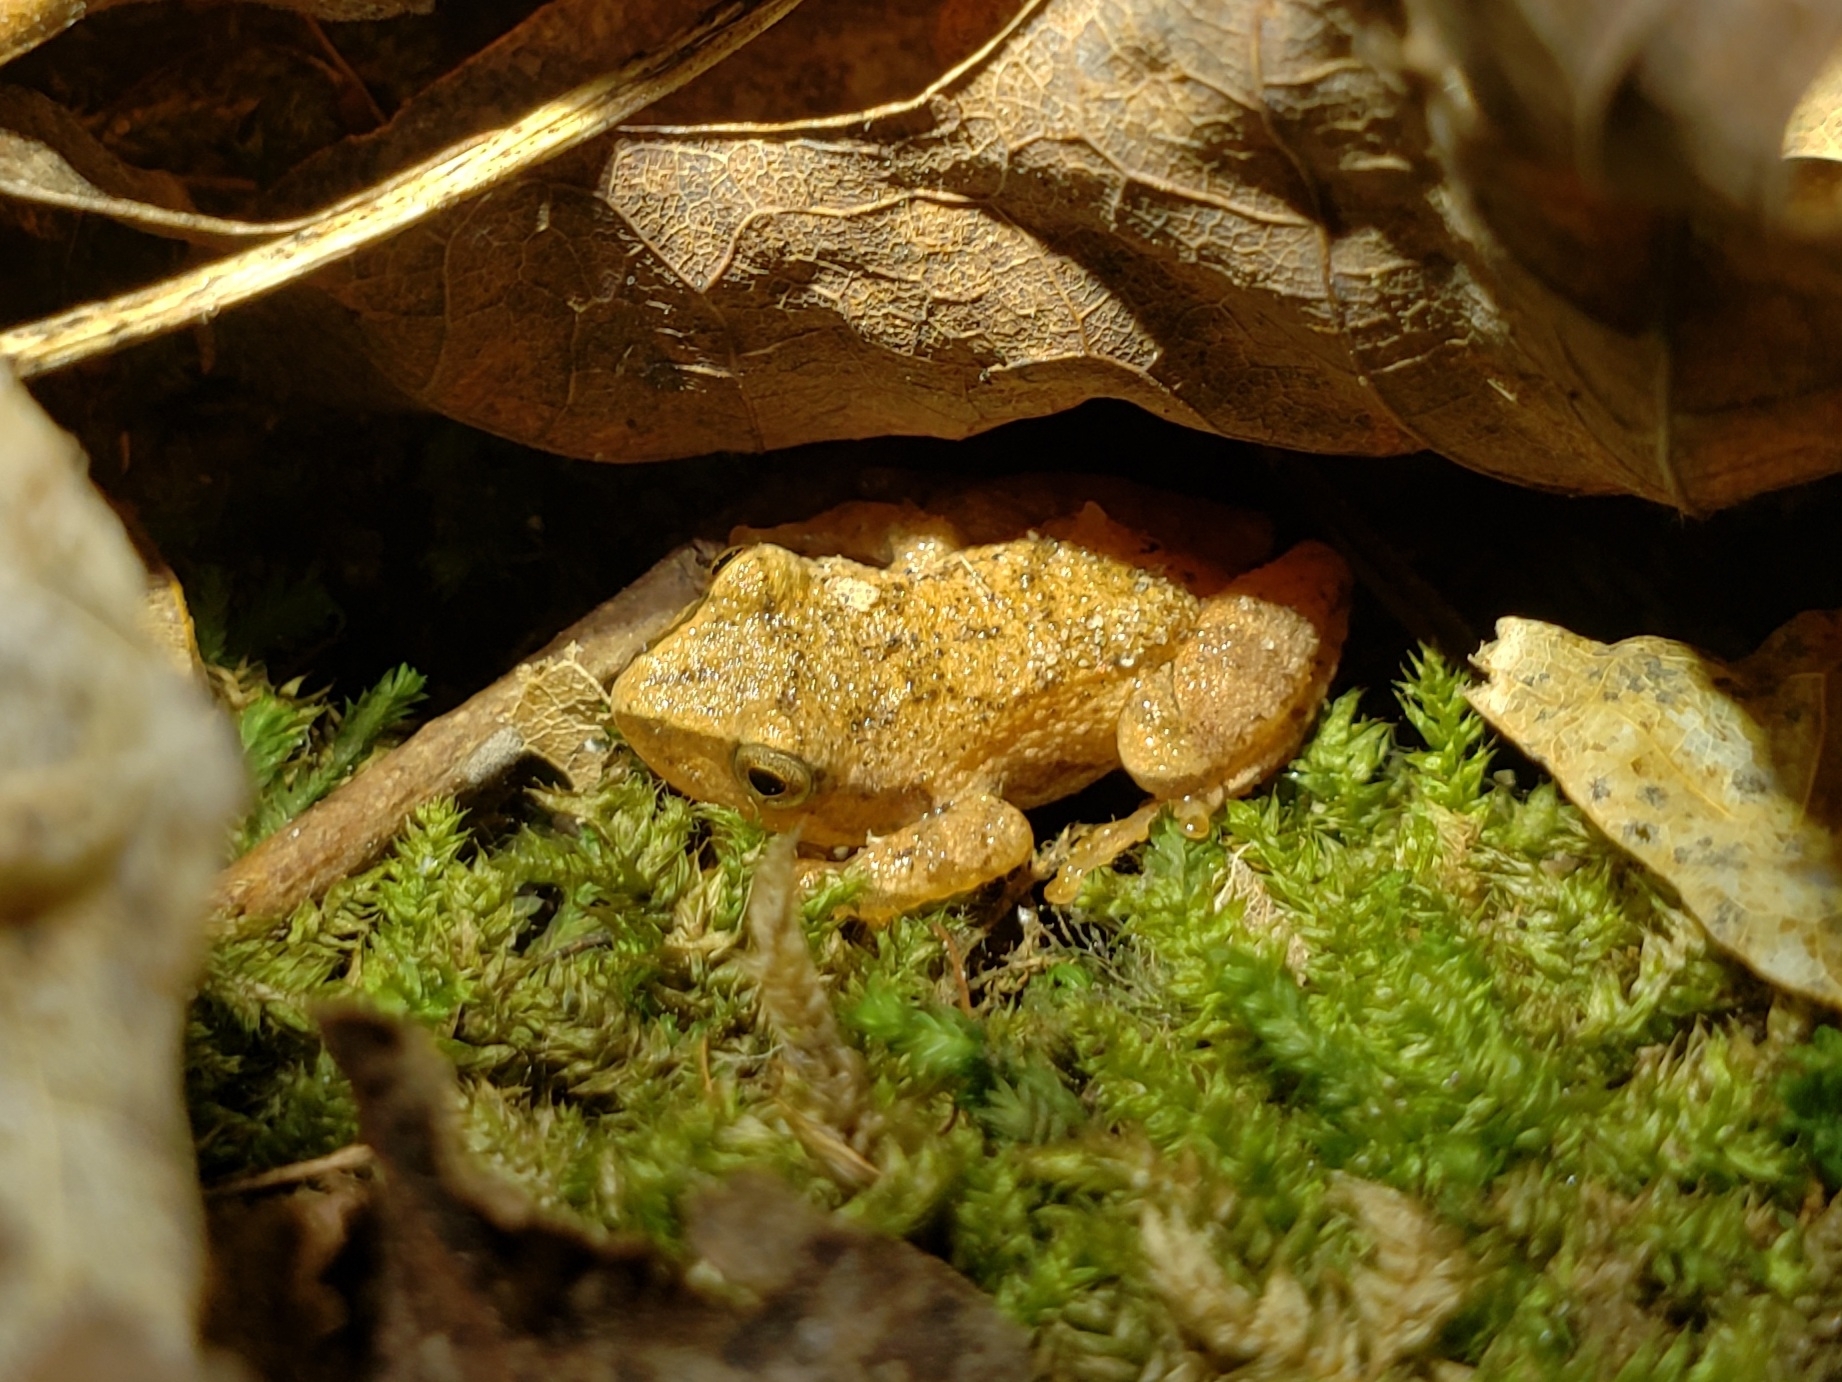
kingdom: Animalia
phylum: Chordata
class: Amphibia
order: Anura
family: Hylidae
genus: Pseudacris
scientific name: Pseudacris crucifer
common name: Spring peeper
